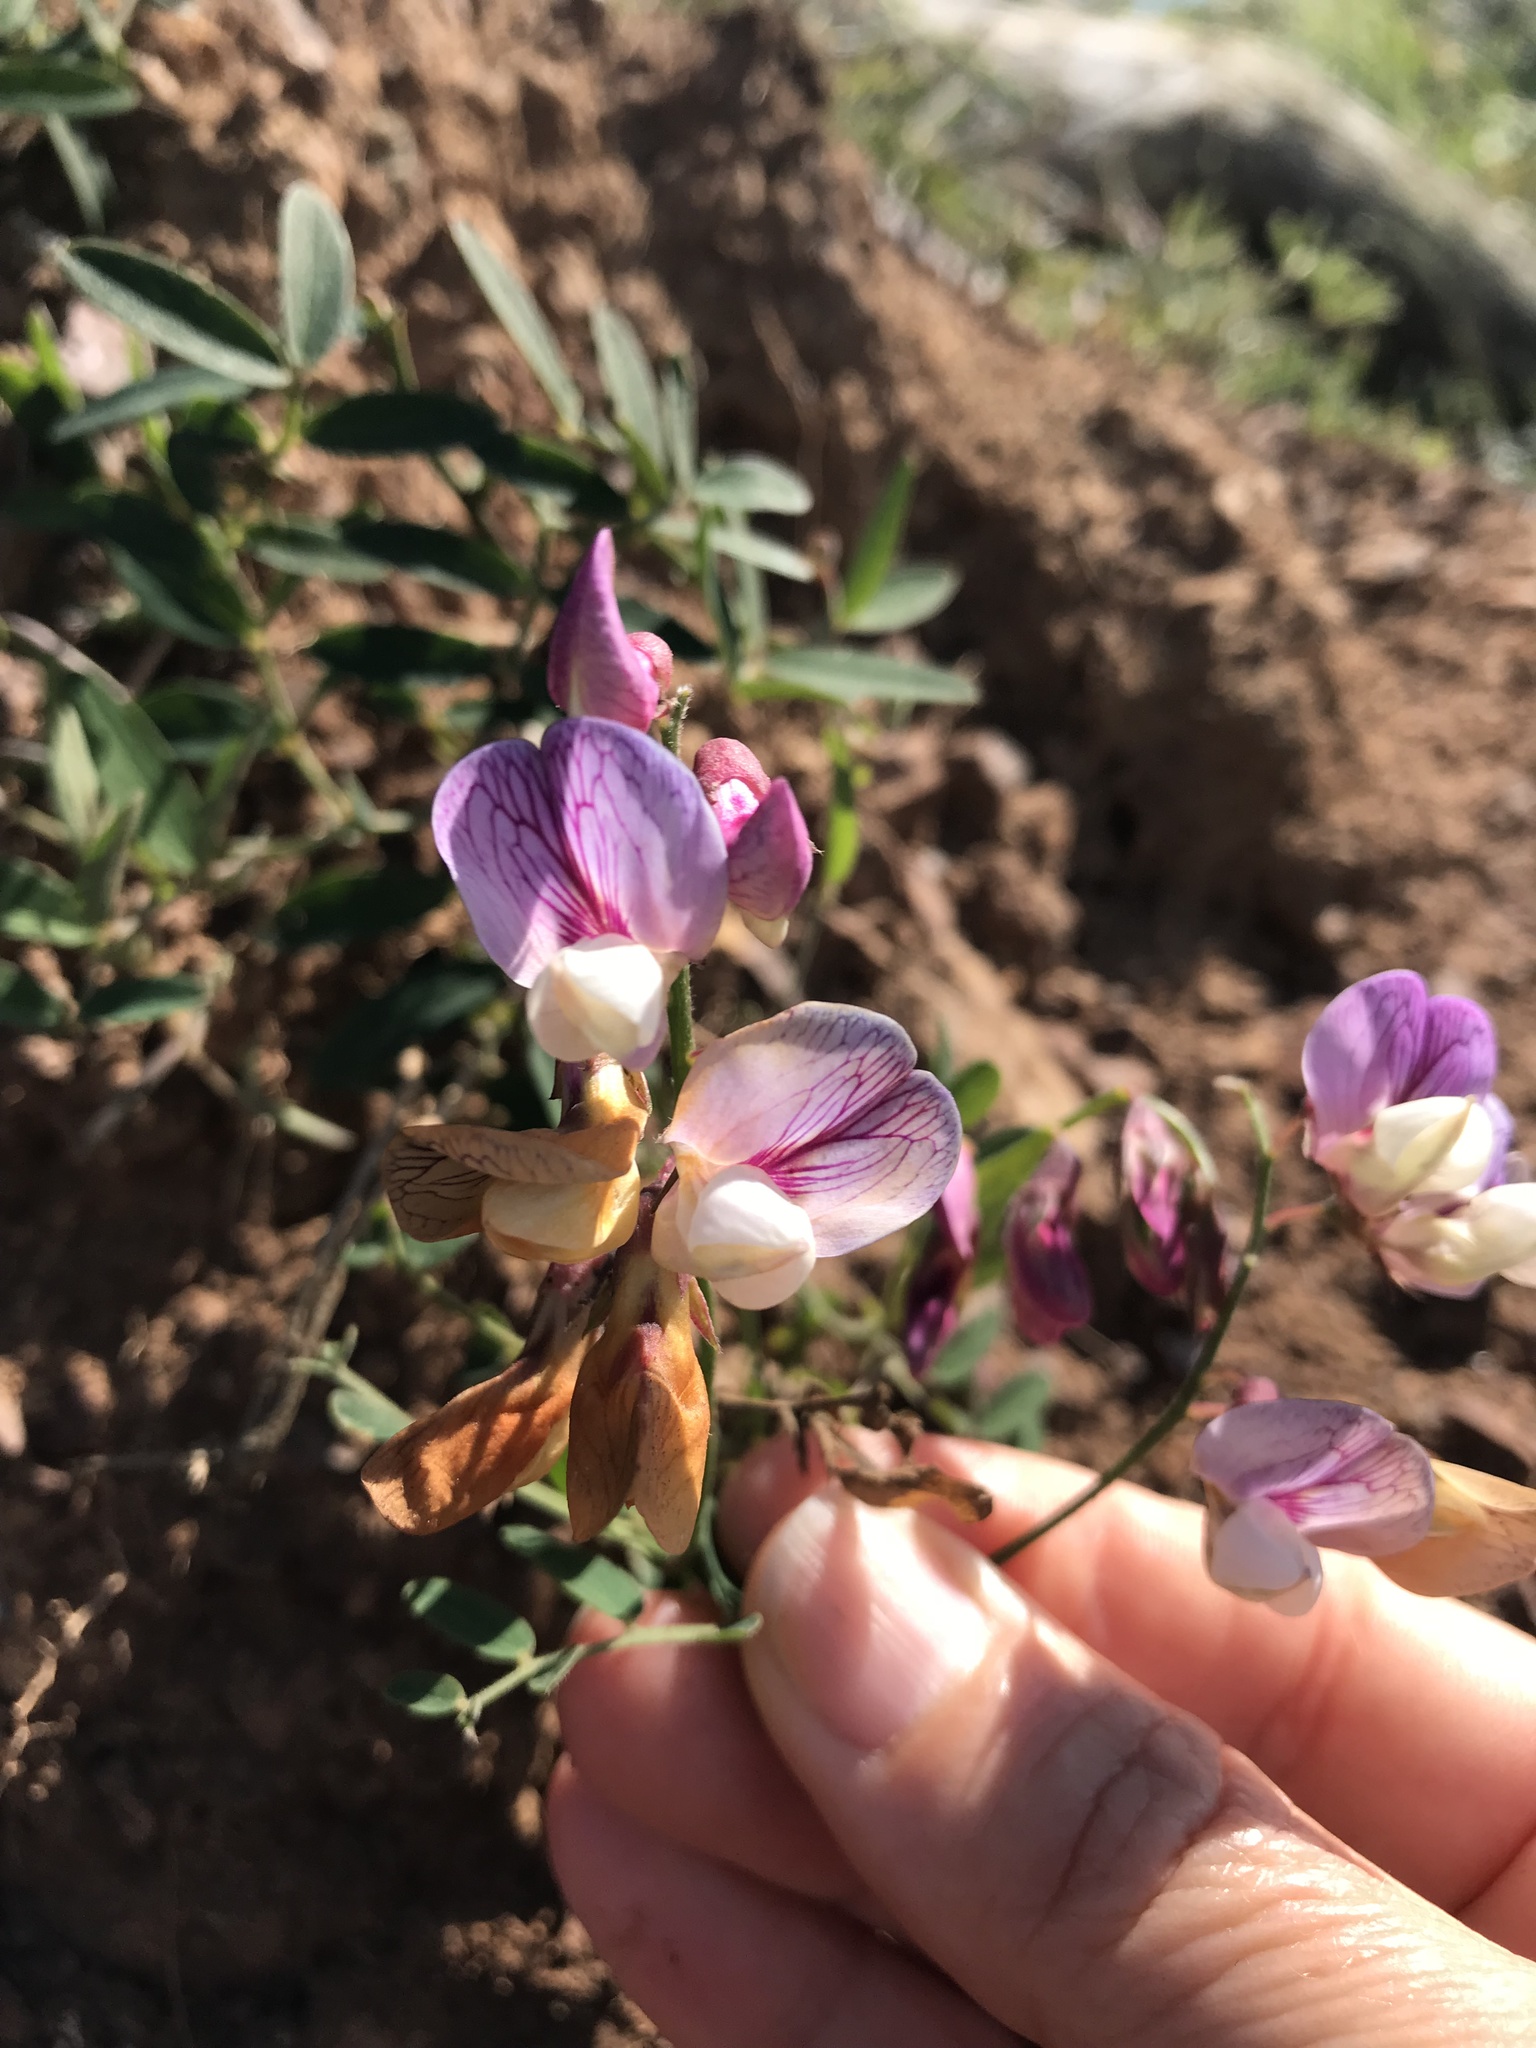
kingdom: Plantae
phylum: Tracheophyta
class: Magnoliopsida
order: Fabales
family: Fabaceae
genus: Lathyrus
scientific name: Lathyrus vestitus
